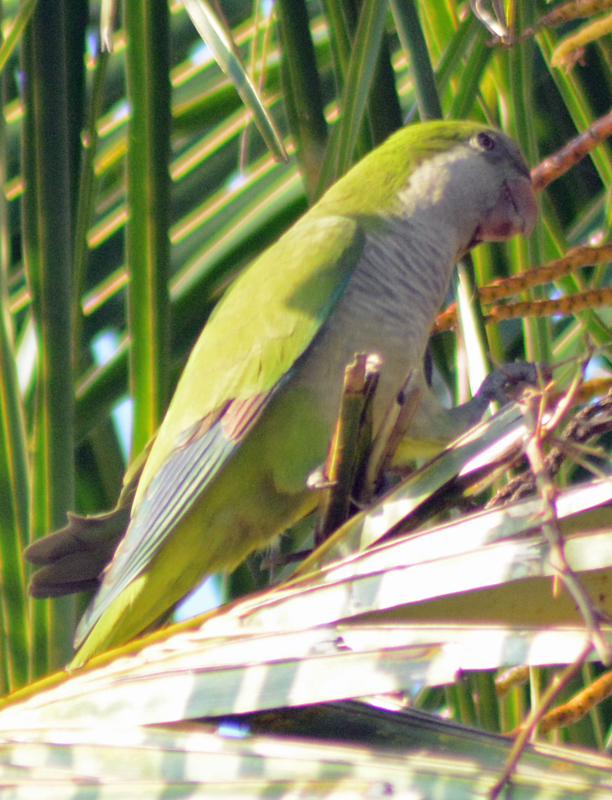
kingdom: Animalia
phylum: Chordata
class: Aves
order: Psittaciformes
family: Psittacidae
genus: Myiopsitta
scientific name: Myiopsitta monachus
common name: Monk parakeet
